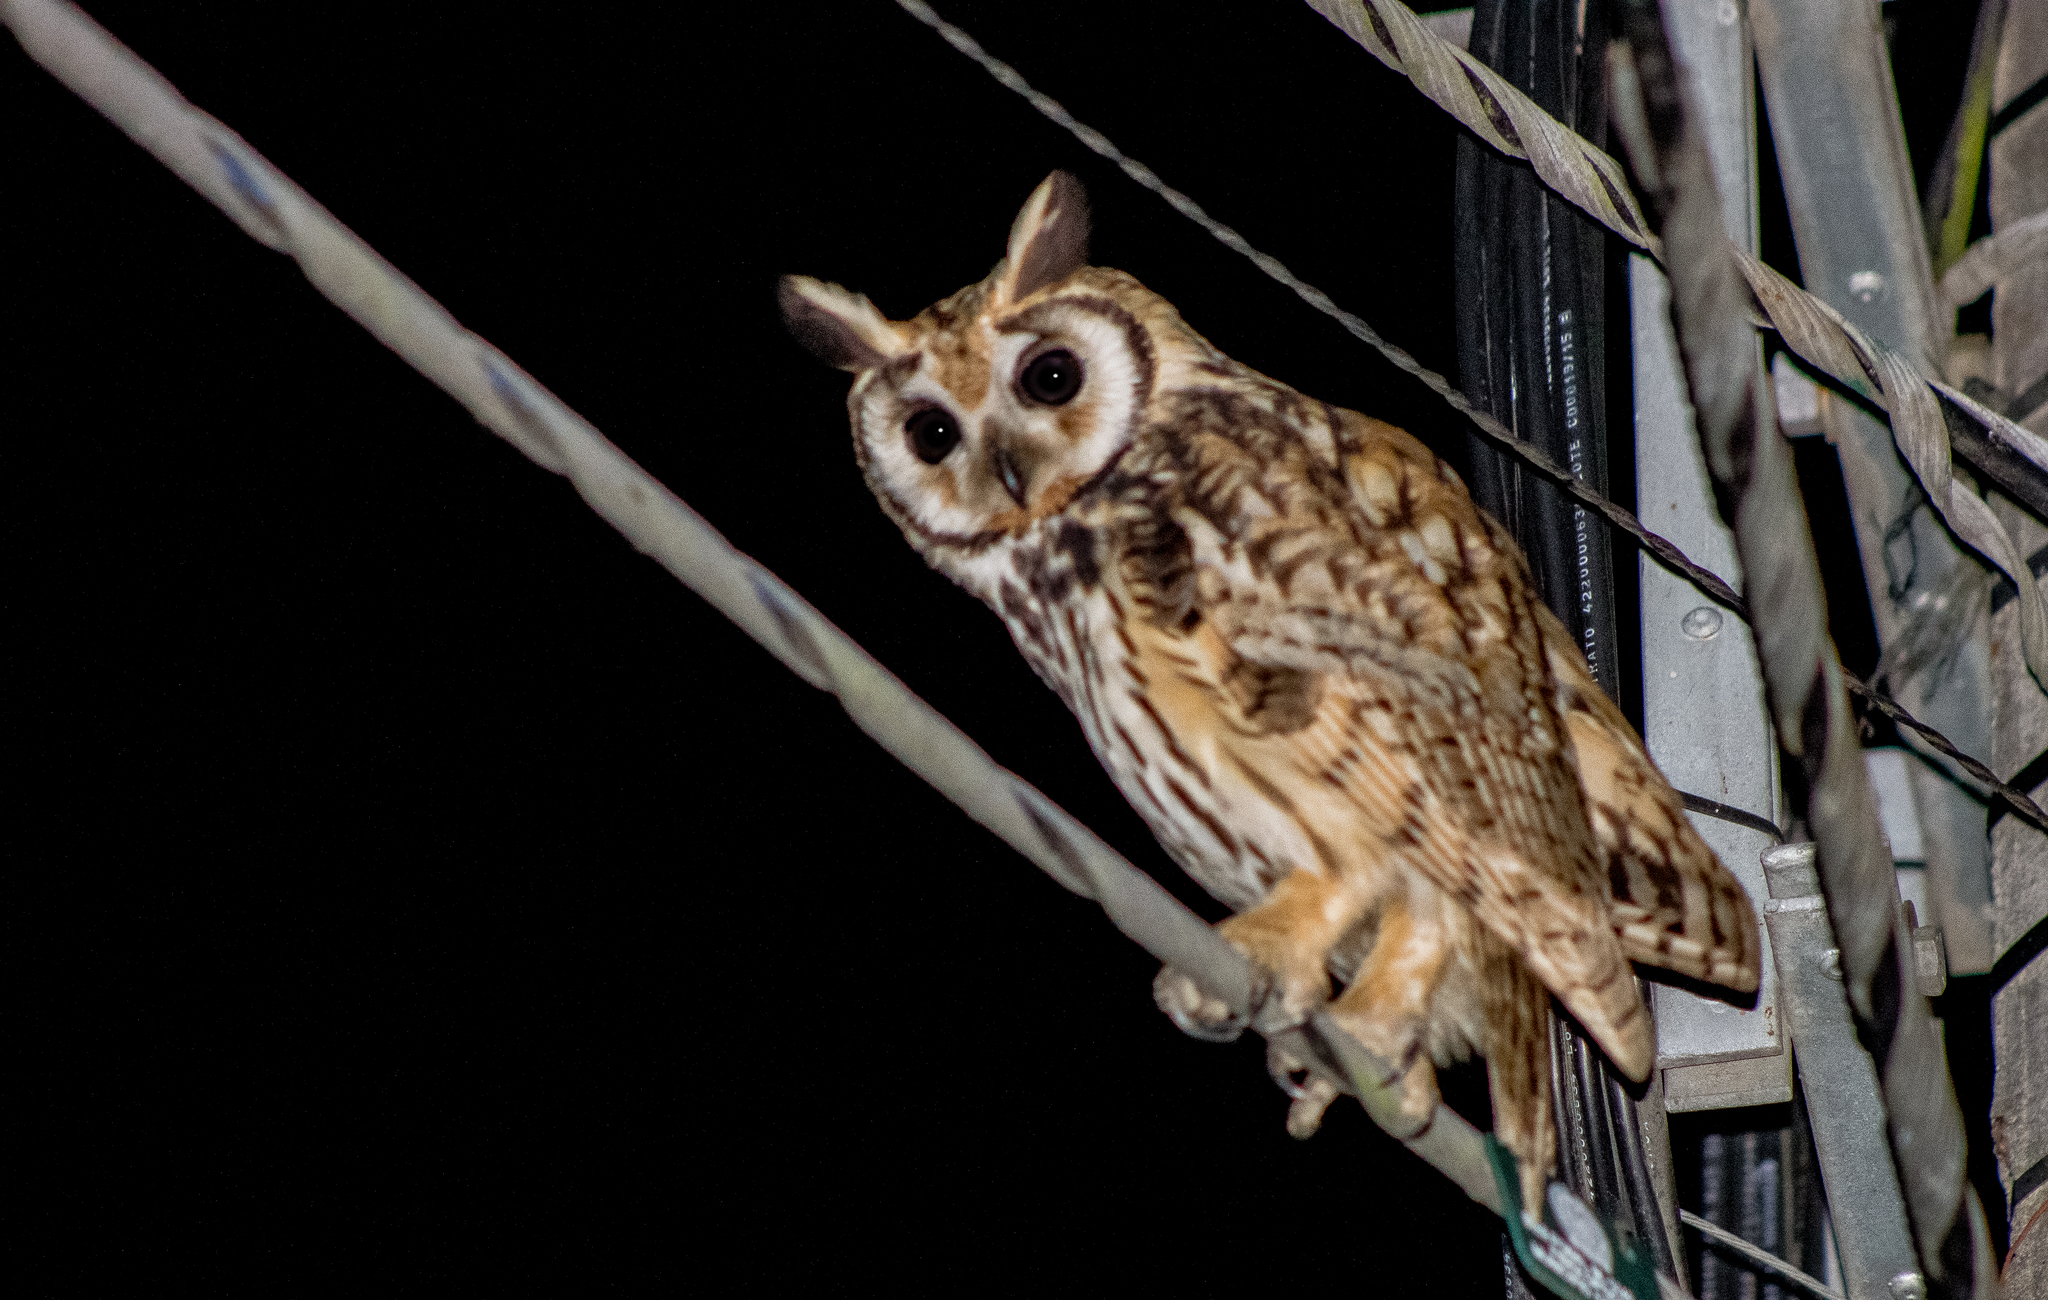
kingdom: Animalia
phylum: Chordata
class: Aves
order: Strigiformes
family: Strigidae
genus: Pseudoscops
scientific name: Pseudoscops clamator
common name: Striped owl
